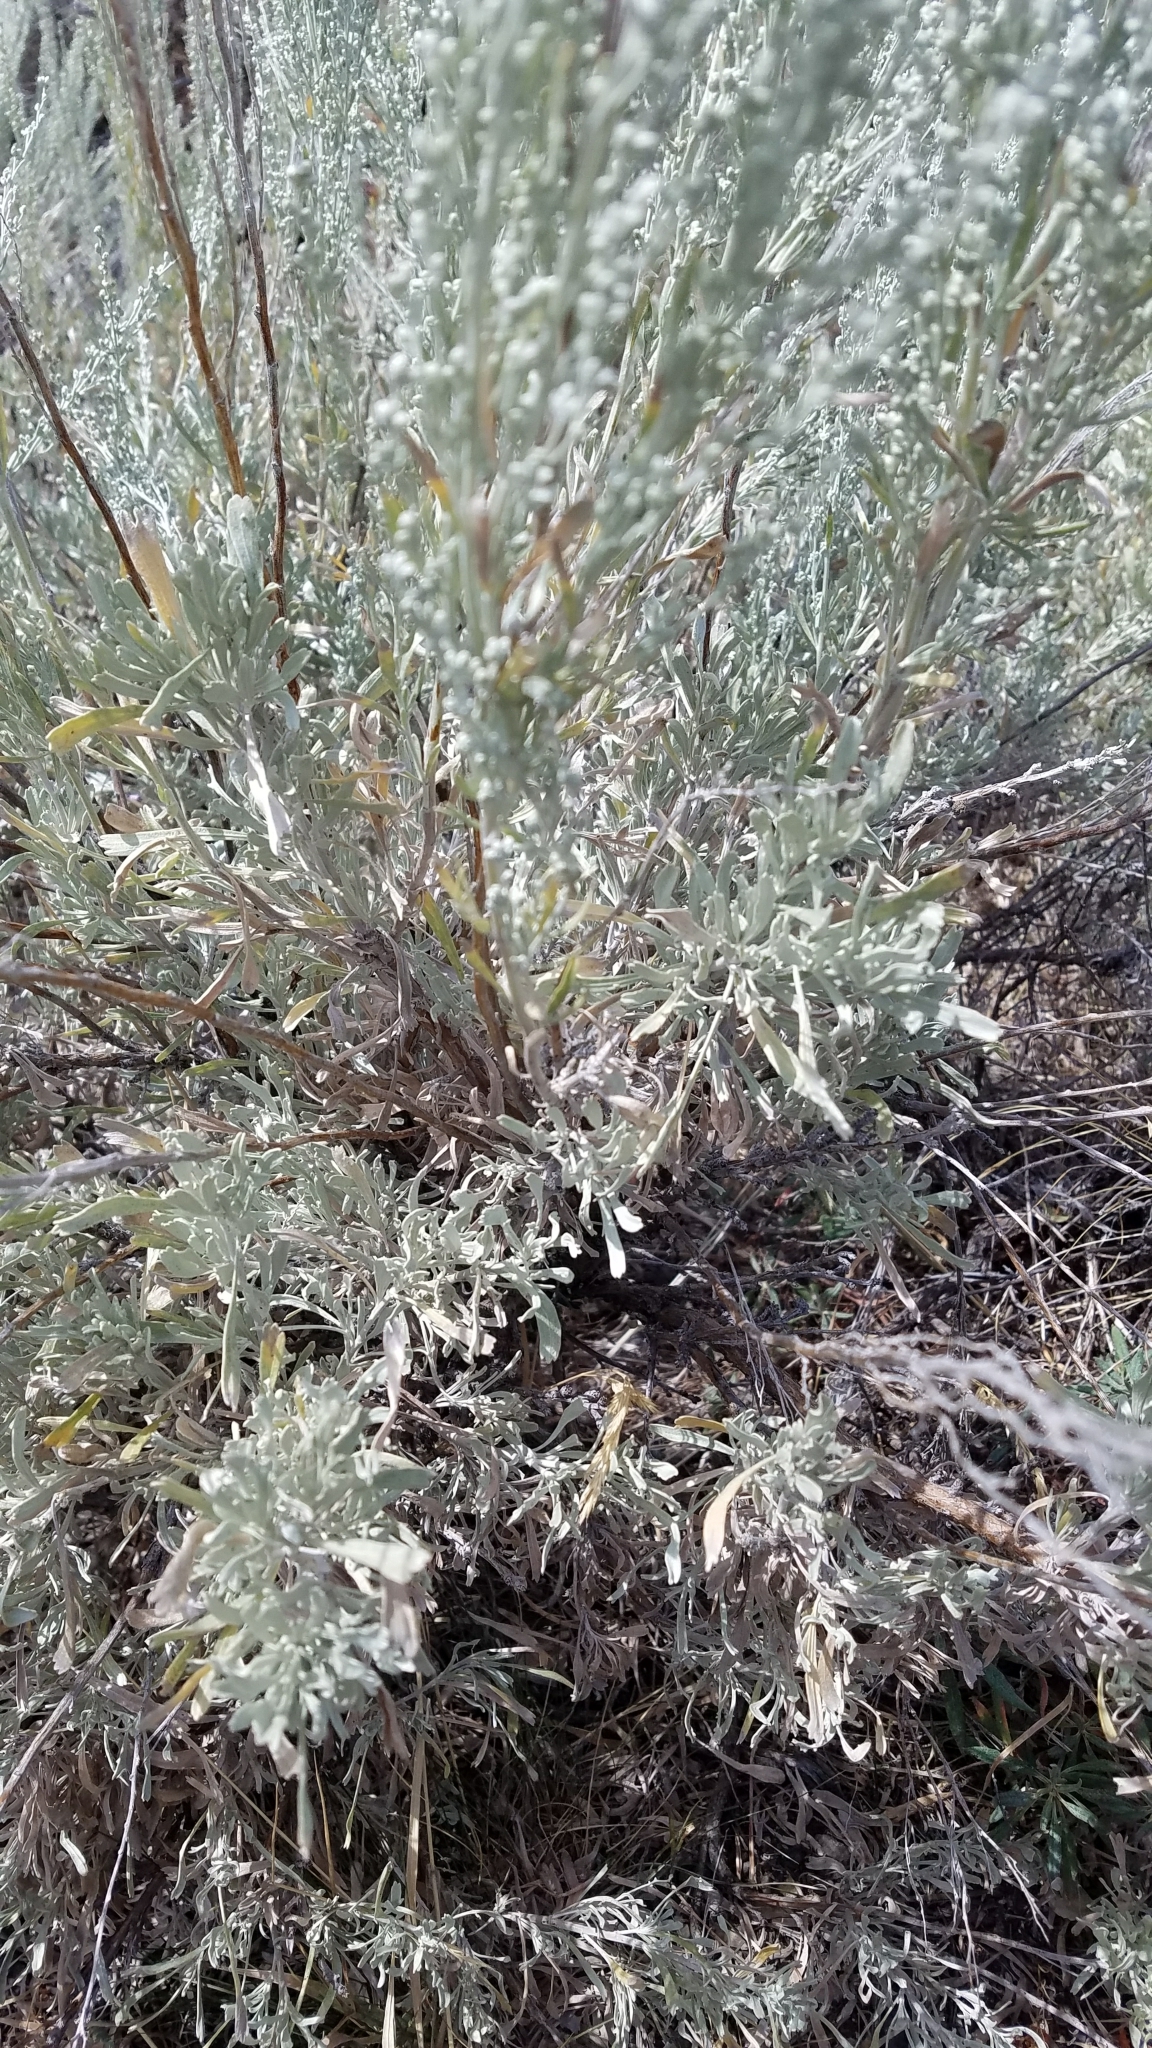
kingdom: Plantae
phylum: Tracheophyta
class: Magnoliopsida
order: Asterales
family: Asteraceae
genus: Artemisia
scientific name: Artemisia tridentata
